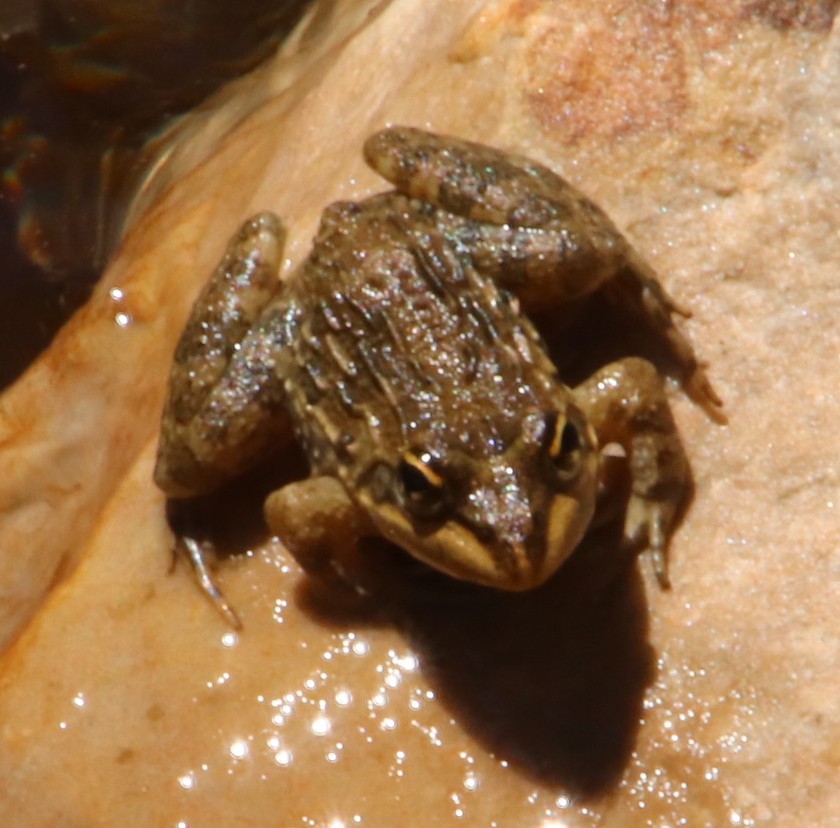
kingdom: Animalia
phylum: Chordata
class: Amphibia
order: Anura
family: Pyxicephalidae
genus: Amietia
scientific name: Amietia fuscigula
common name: Cape rana
